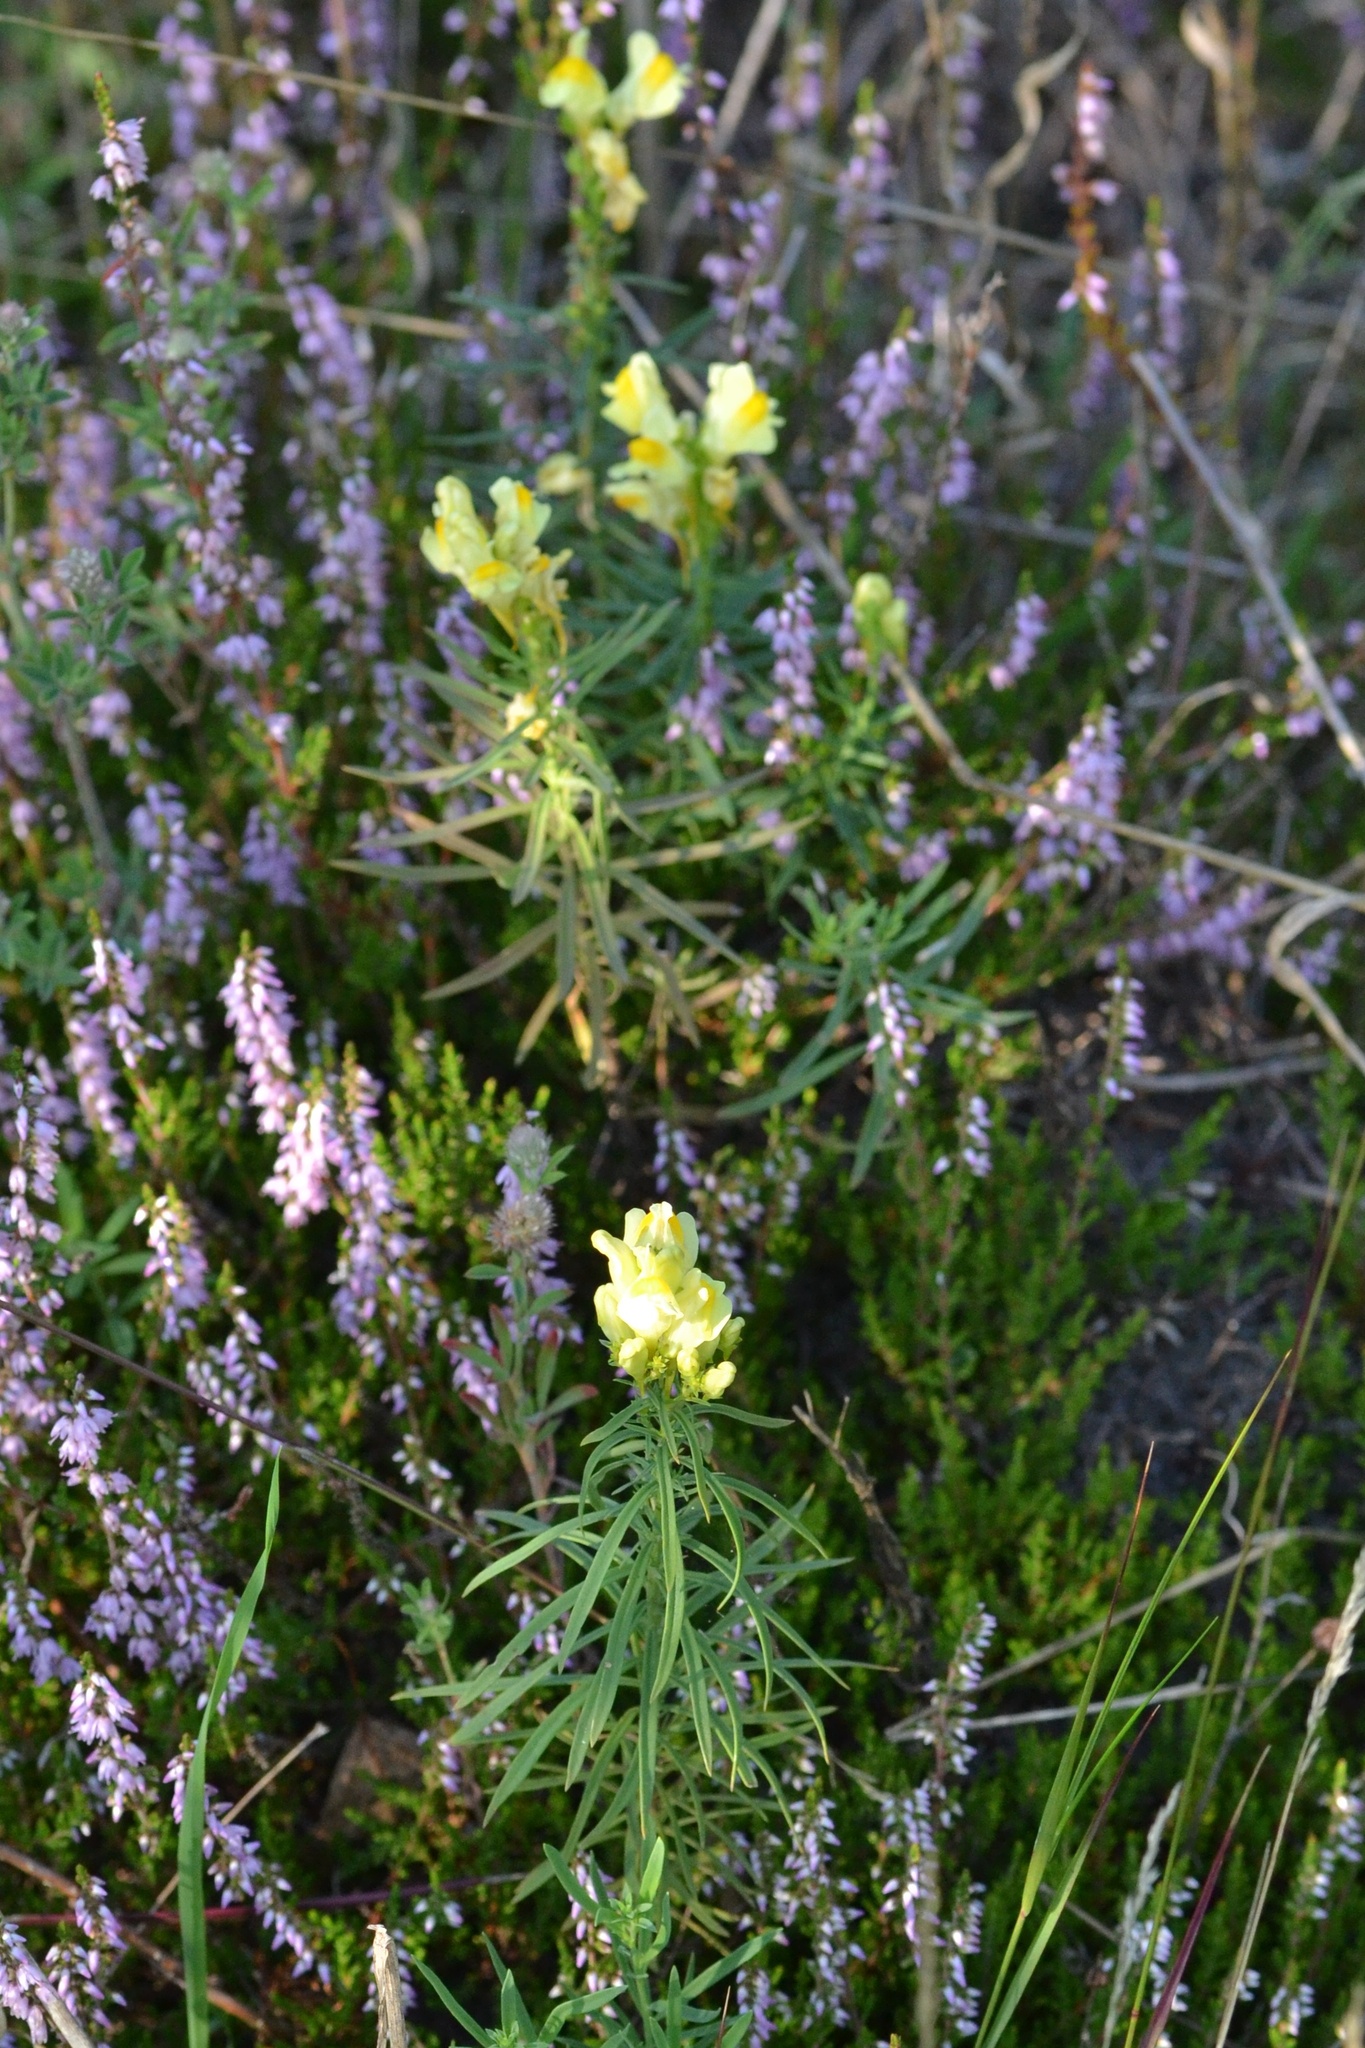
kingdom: Plantae
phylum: Tracheophyta
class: Magnoliopsida
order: Lamiales
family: Plantaginaceae
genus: Linaria
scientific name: Linaria vulgaris
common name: Butter and eggs
